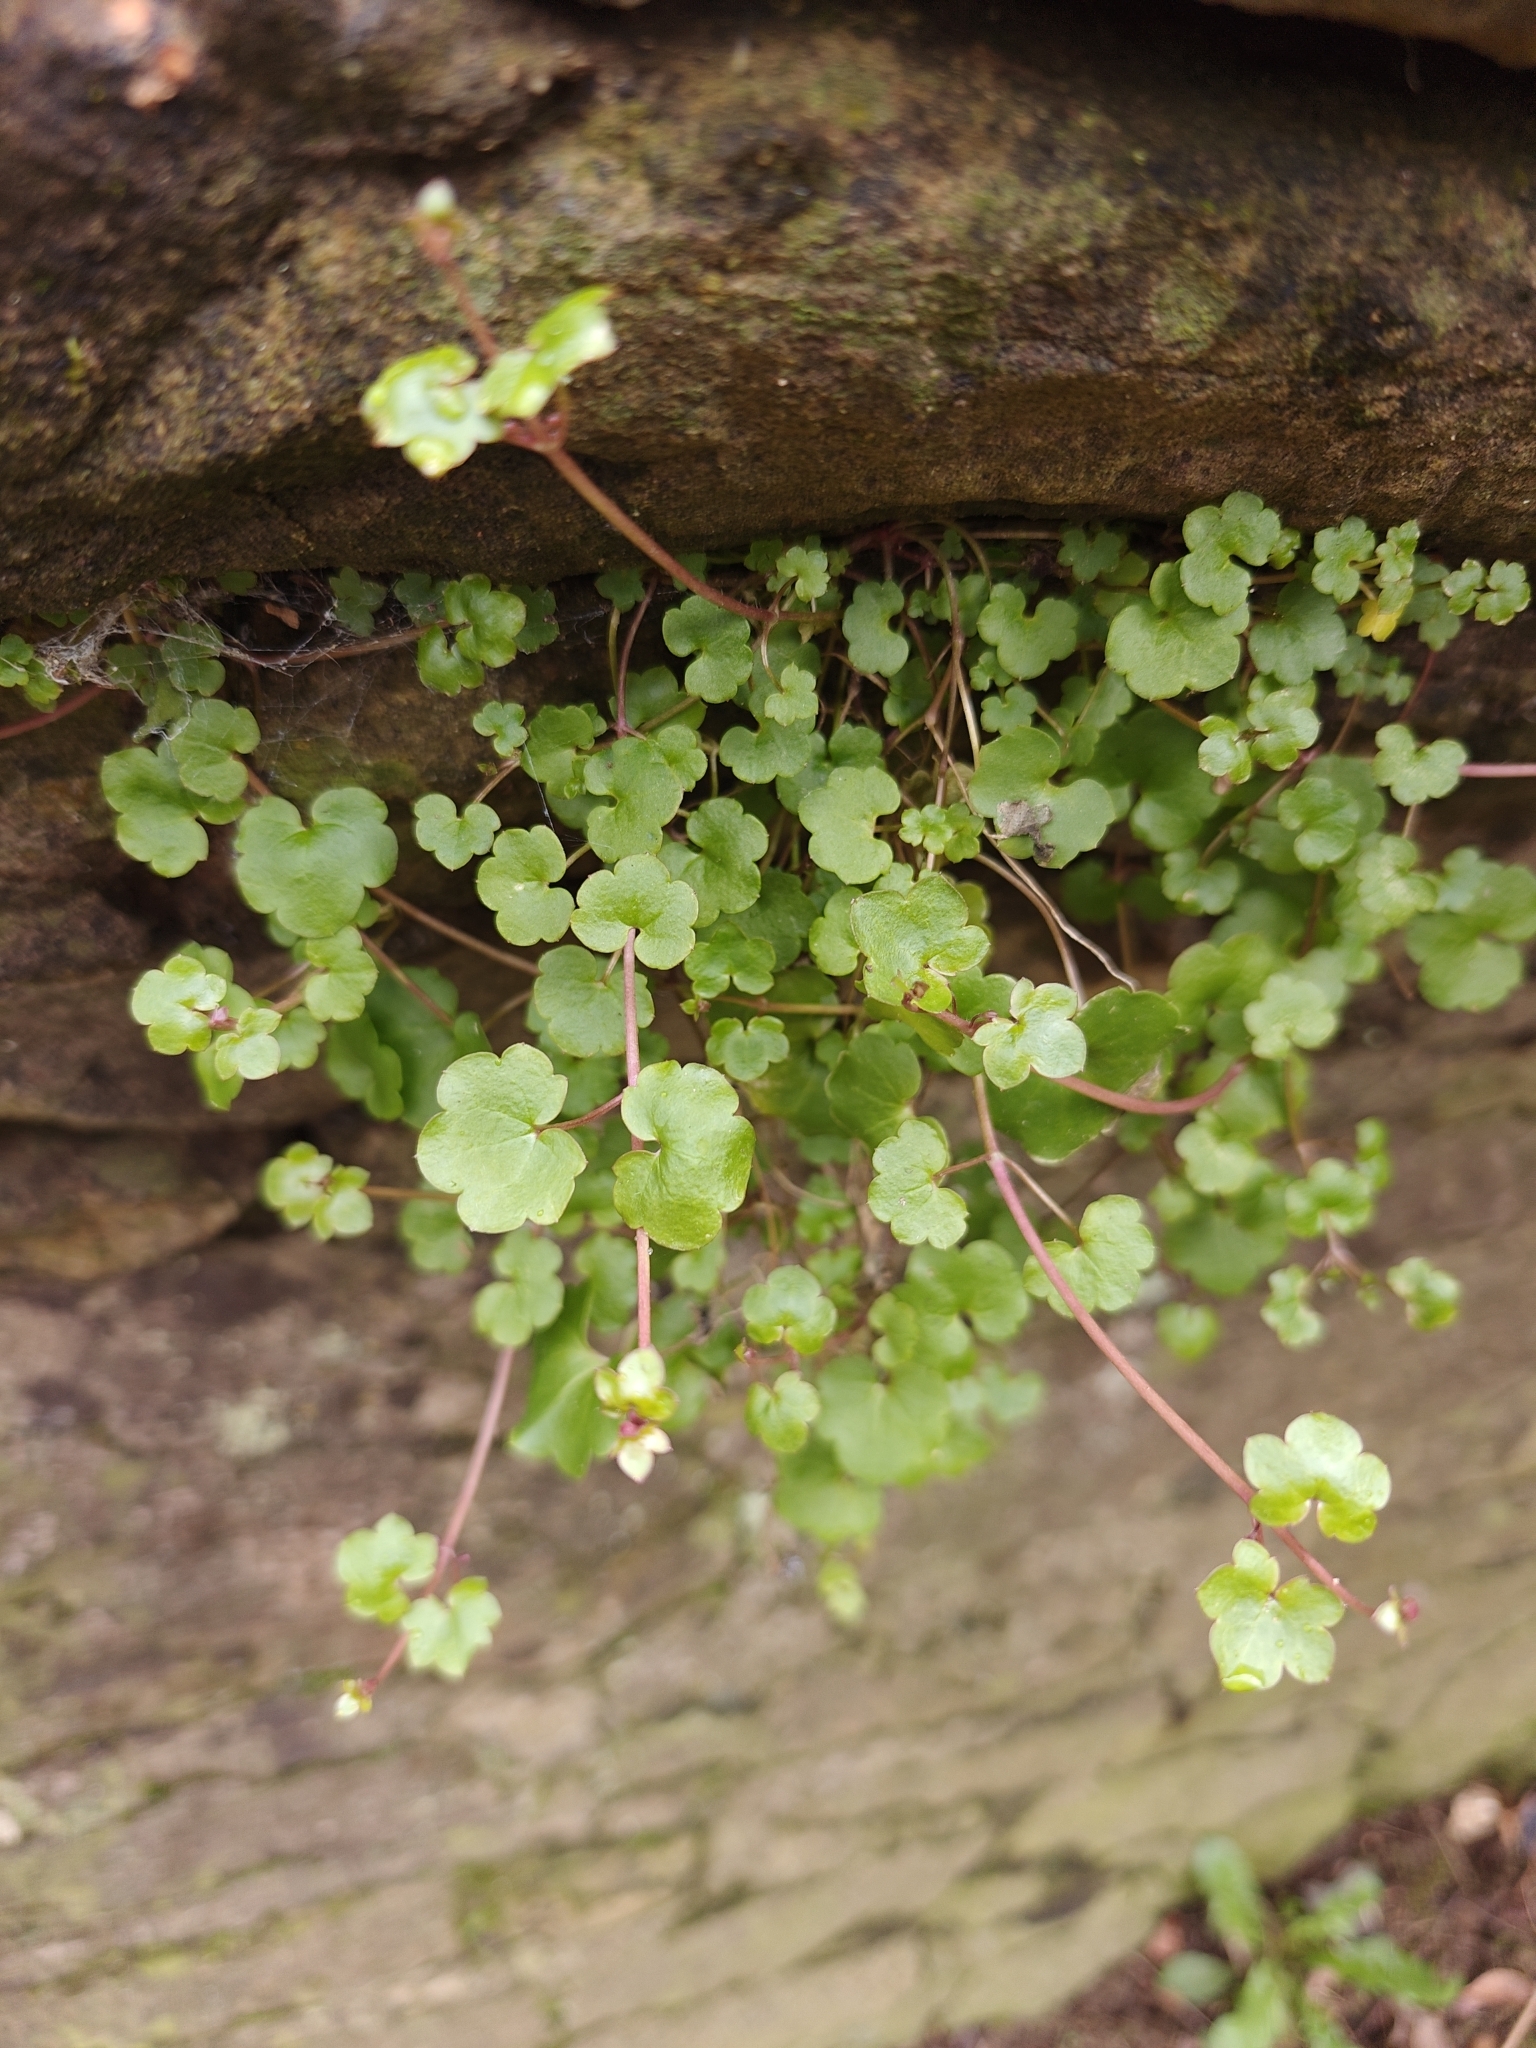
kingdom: Plantae
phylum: Tracheophyta
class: Magnoliopsida
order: Lamiales
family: Plantaginaceae
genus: Cymbalaria
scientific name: Cymbalaria muralis
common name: Ivy-leaved toadflax
